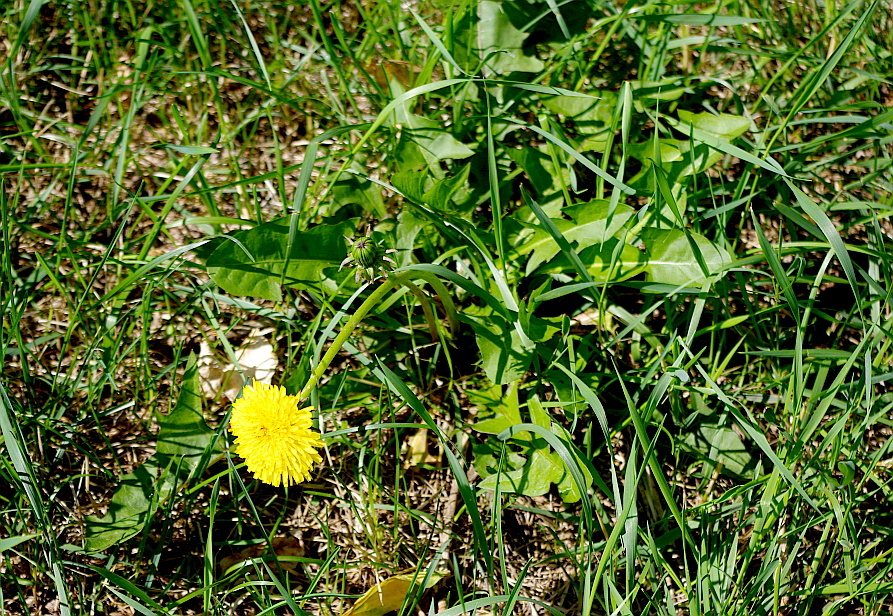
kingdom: Plantae
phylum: Tracheophyta
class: Magnoliopsida
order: Asterales
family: Asteraceae
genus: Taraxacum
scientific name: Taraxacum officinale
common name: Common dandelion
